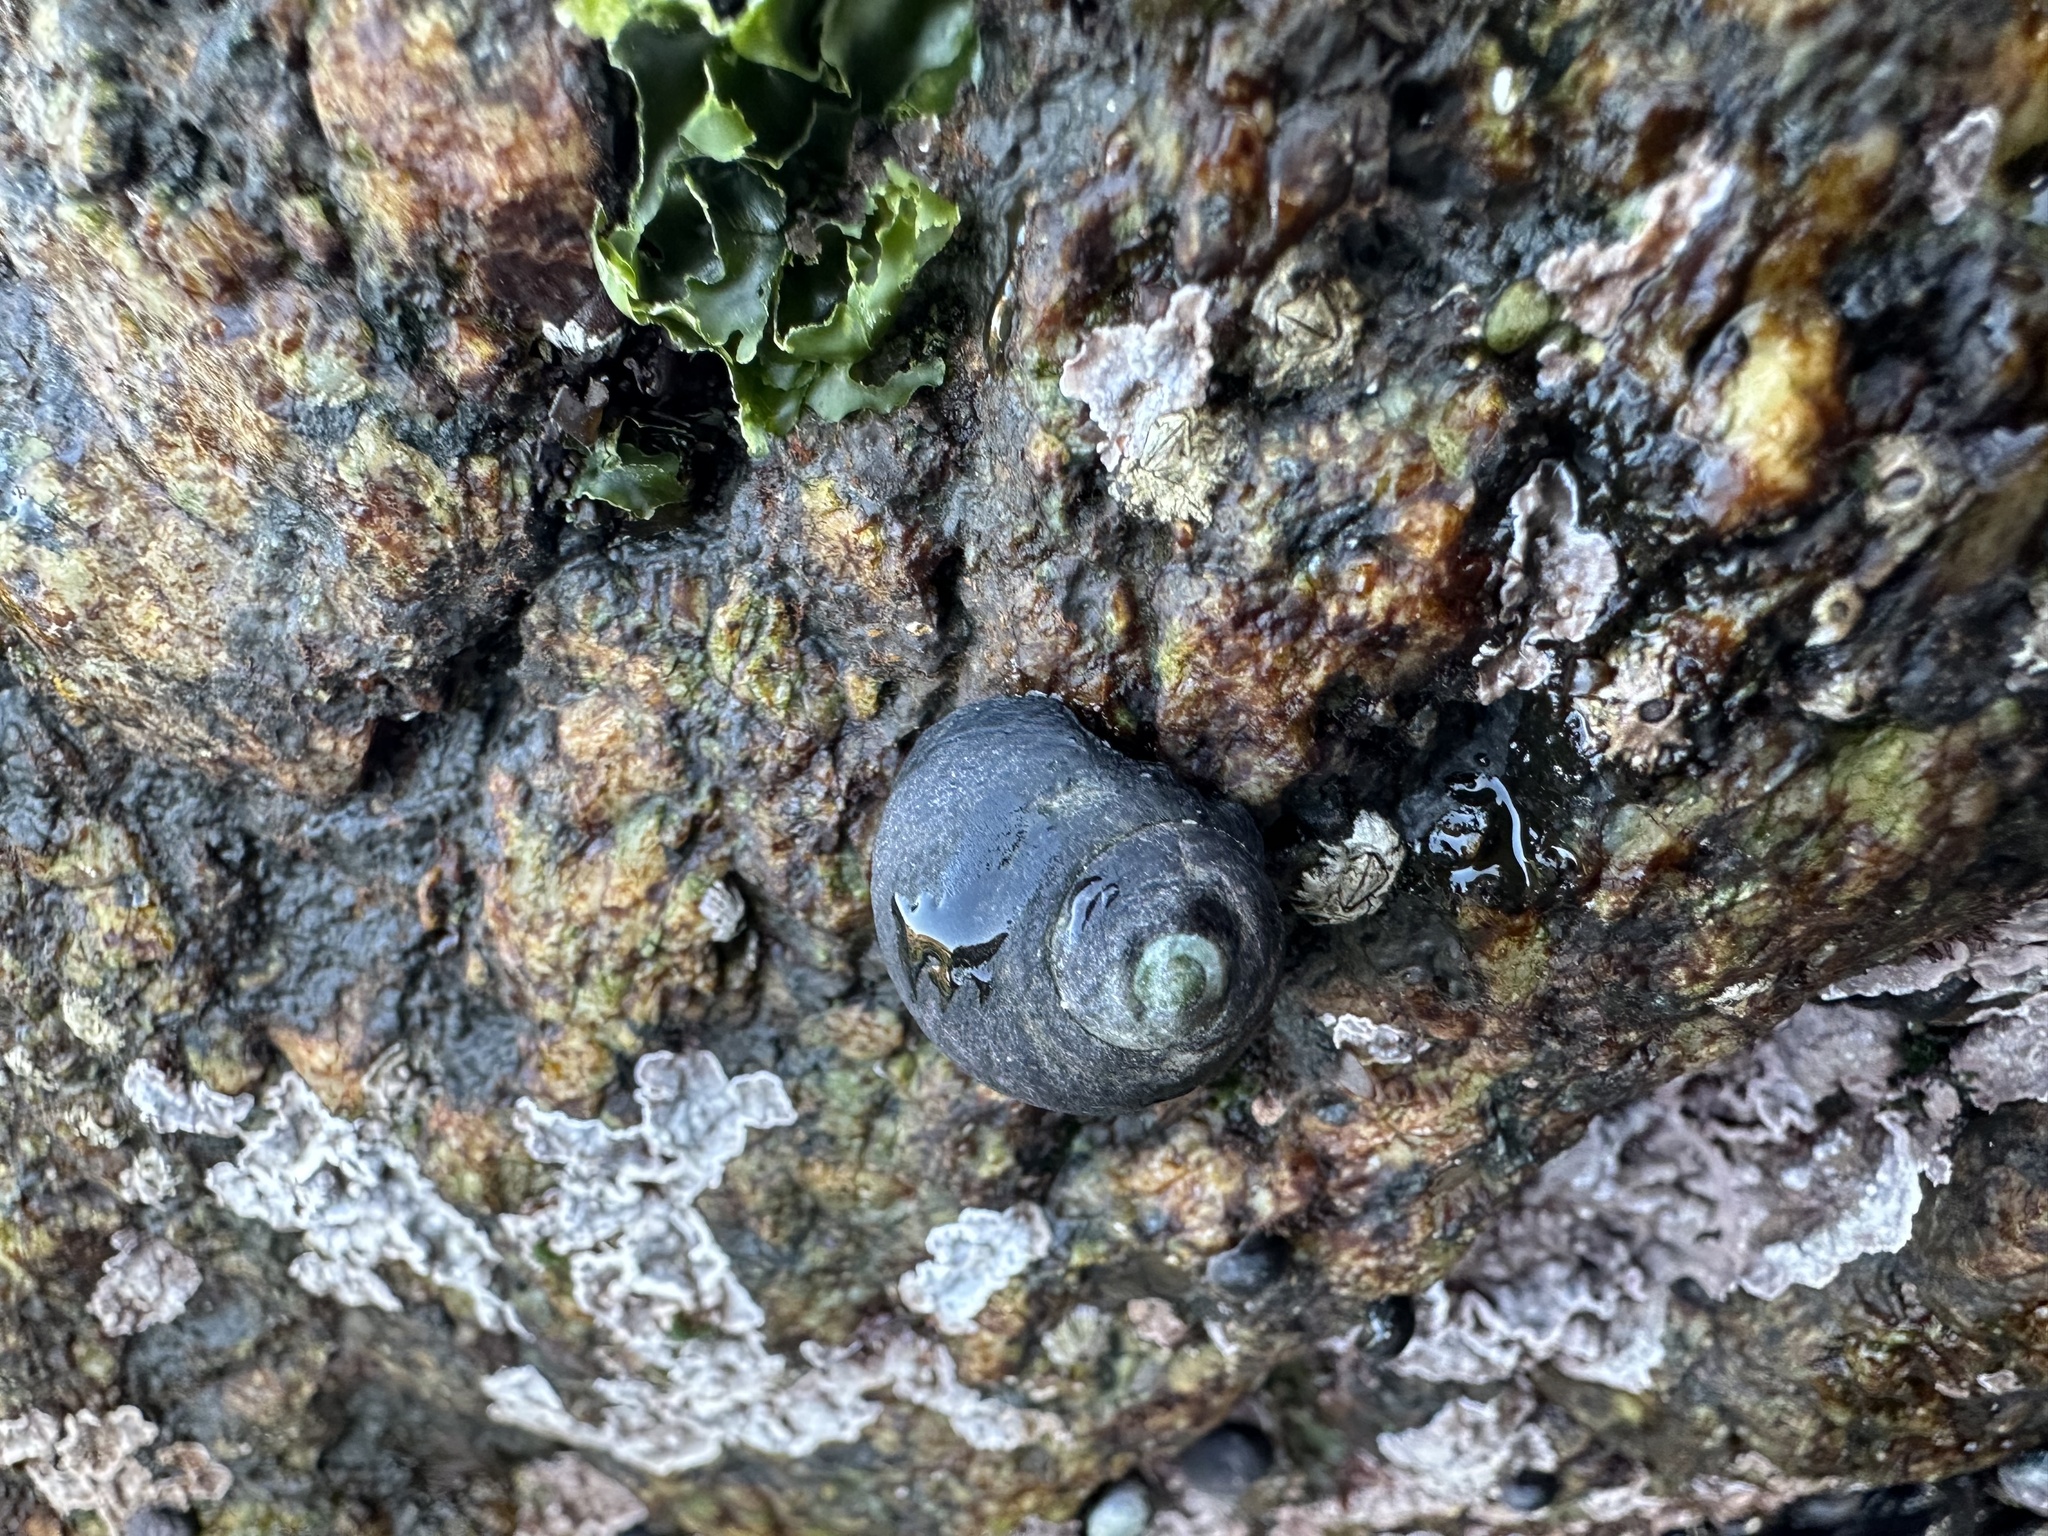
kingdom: Animalia
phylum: Mollusca
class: Gastropoda
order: Trochida
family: Turbinidae
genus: Prisogaster
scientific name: Prisogaster niger
